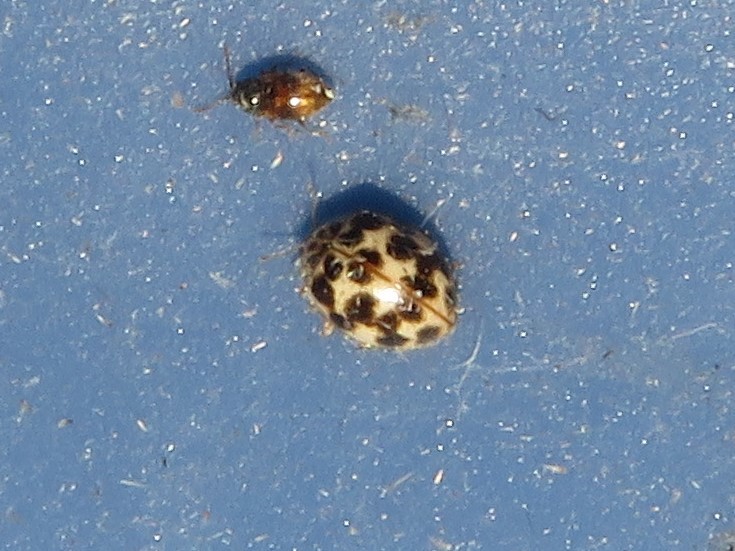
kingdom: Animalia
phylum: Arthropoda
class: Insecta
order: Coleoptera
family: Coccinellidae
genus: Psyllobora
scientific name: Psyllobora vigintimaculata
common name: Ladybird beetle
